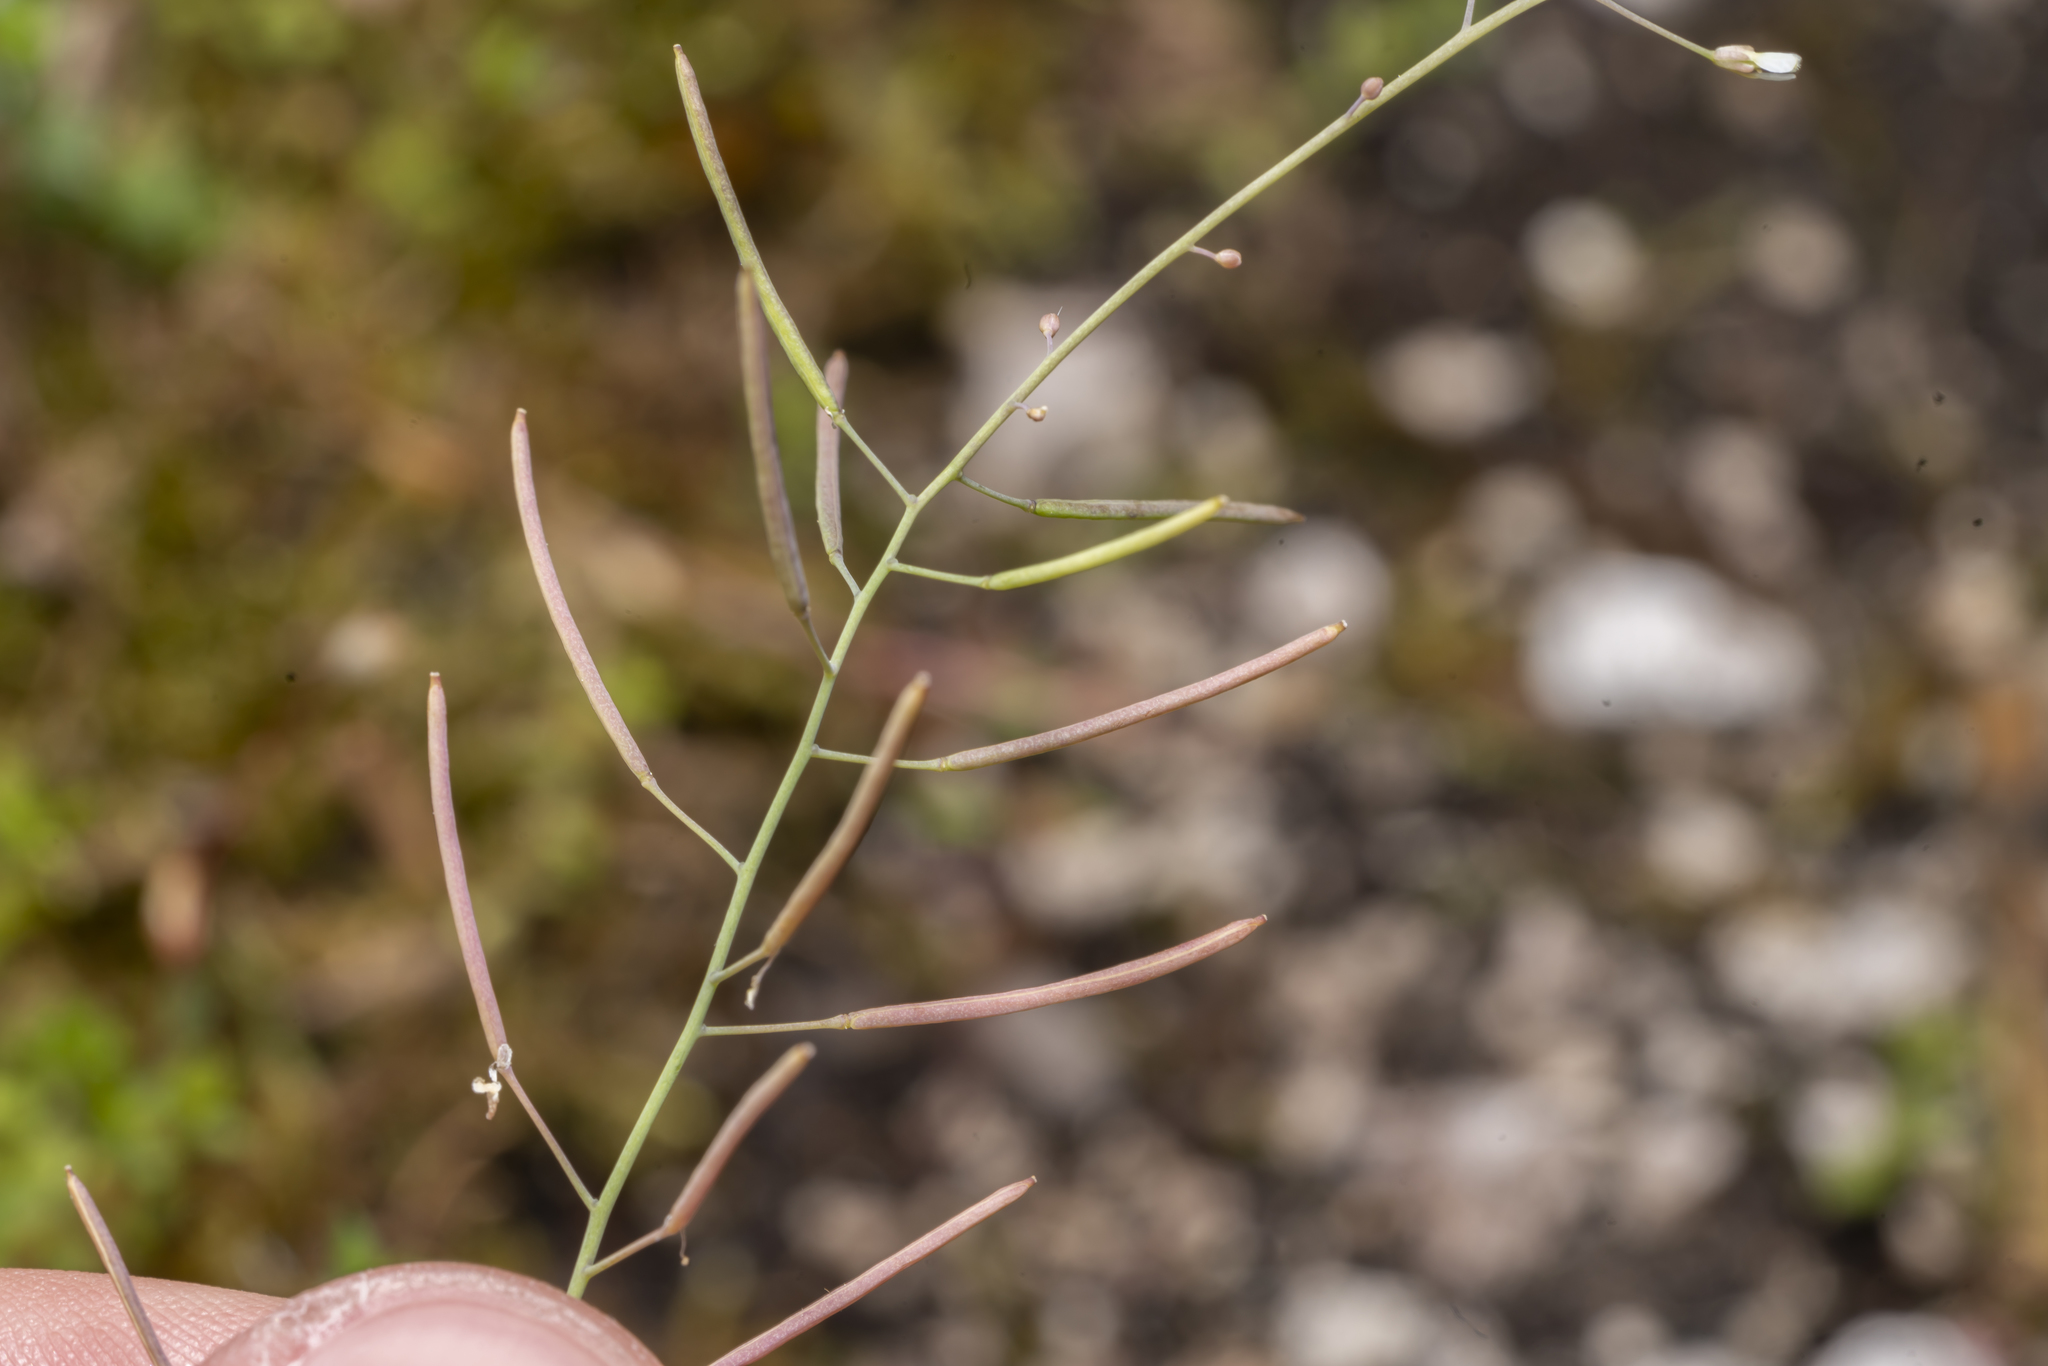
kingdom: Plantae
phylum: Tracheophyta
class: Magnoliopsida
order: Brassicales
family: Brassicaceae
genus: Arabidopsis
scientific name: Arabidopsis thaliana
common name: Thale cress
